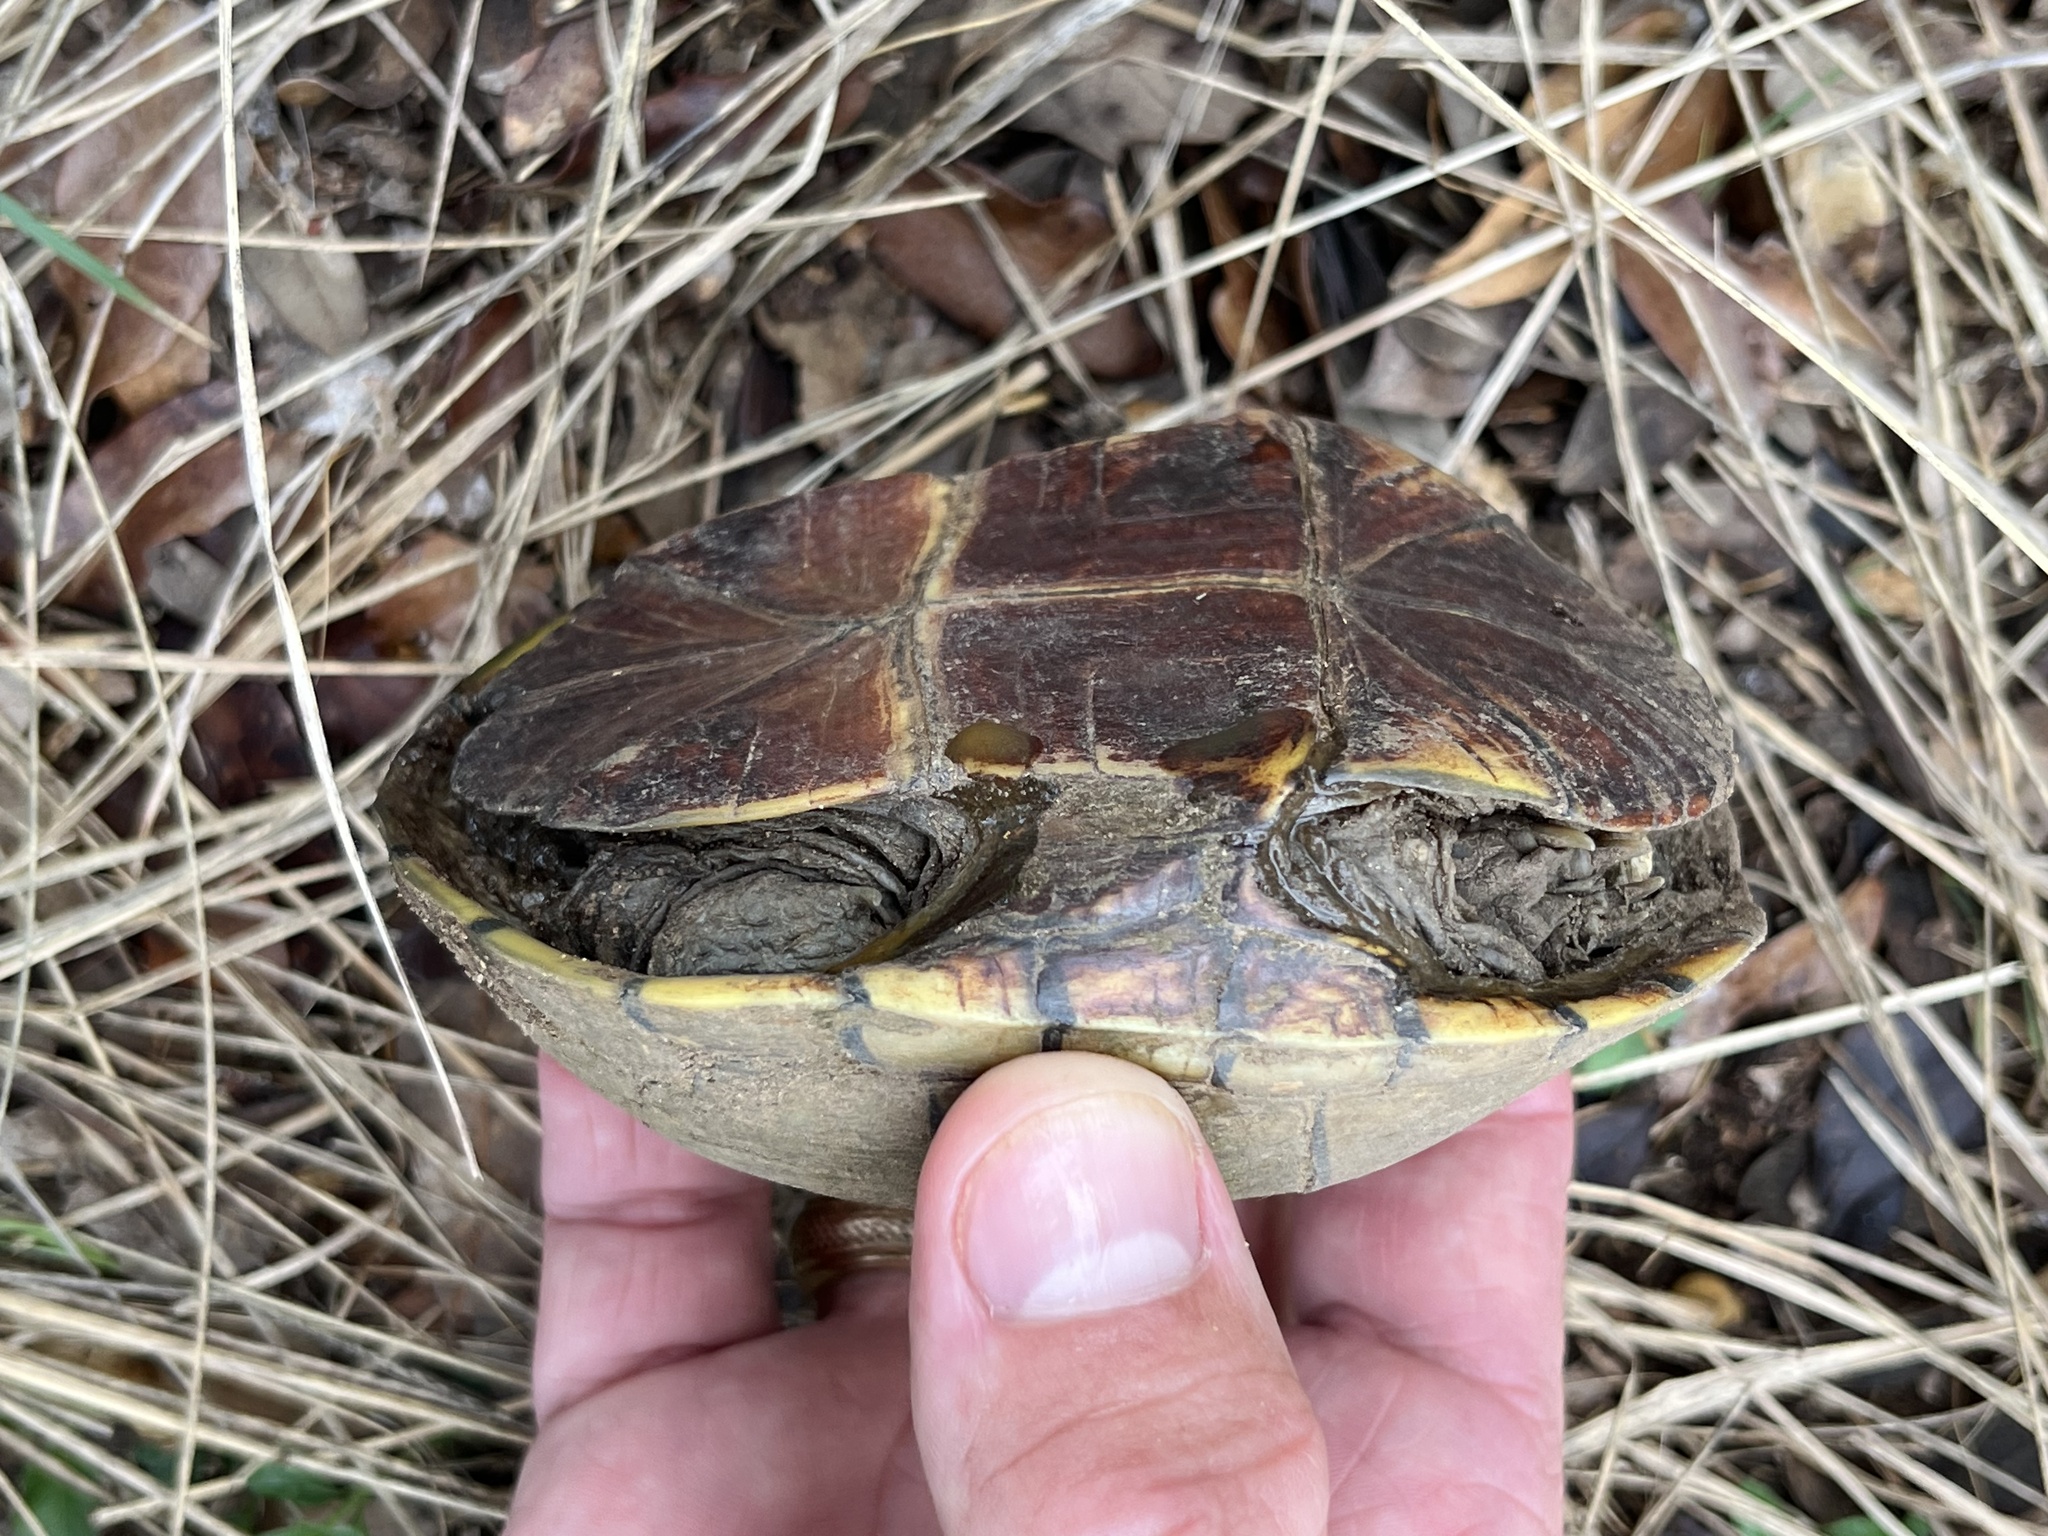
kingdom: Animalia
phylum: Chordata
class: Testudines
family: Kinosternidae
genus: Kinosternon
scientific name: Kinosternon flavescens
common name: Yellow mud turtle
